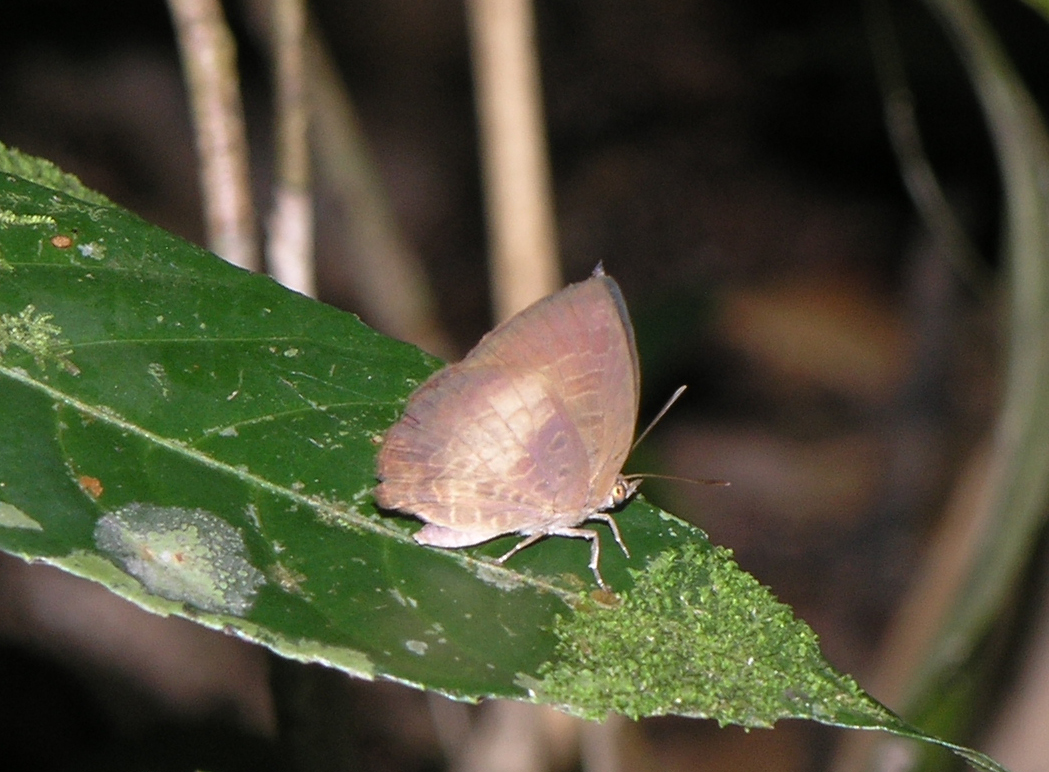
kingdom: Animalia
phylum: Arthropoda
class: Insecta
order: Lepidoptera
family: Lycaenidae
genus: Arhopala
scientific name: Arhopala perimuta
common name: Yellowdisc oakblue
